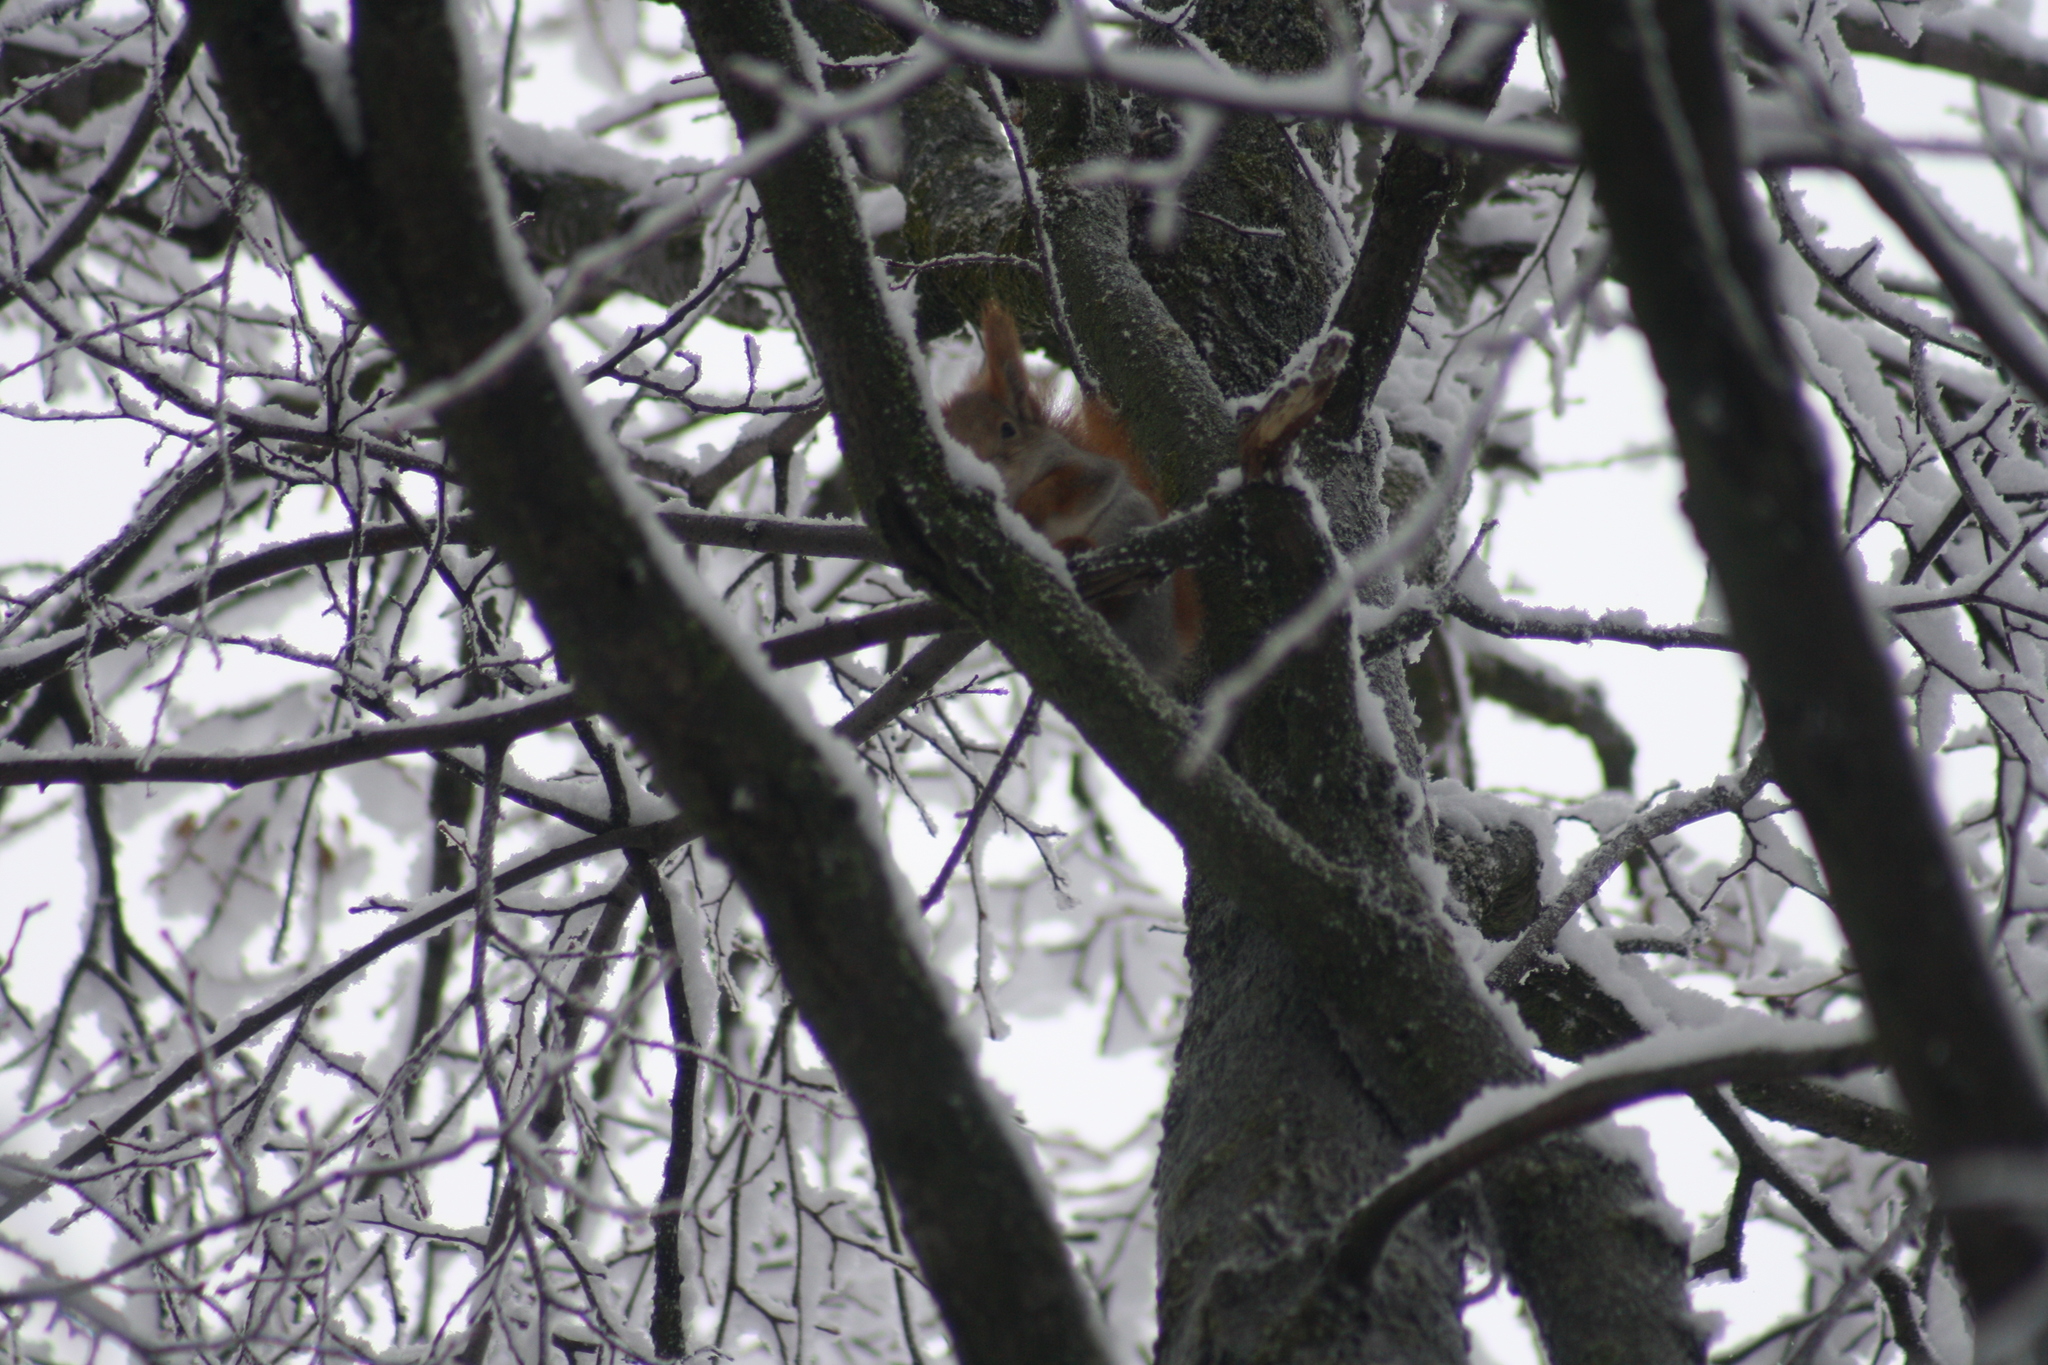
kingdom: Animalia
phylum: Chordata
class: Mammalia
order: Rodentia
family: Sciuridae
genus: Sciurus
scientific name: Sciurus vulgaris
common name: Eurasian red squirrel
